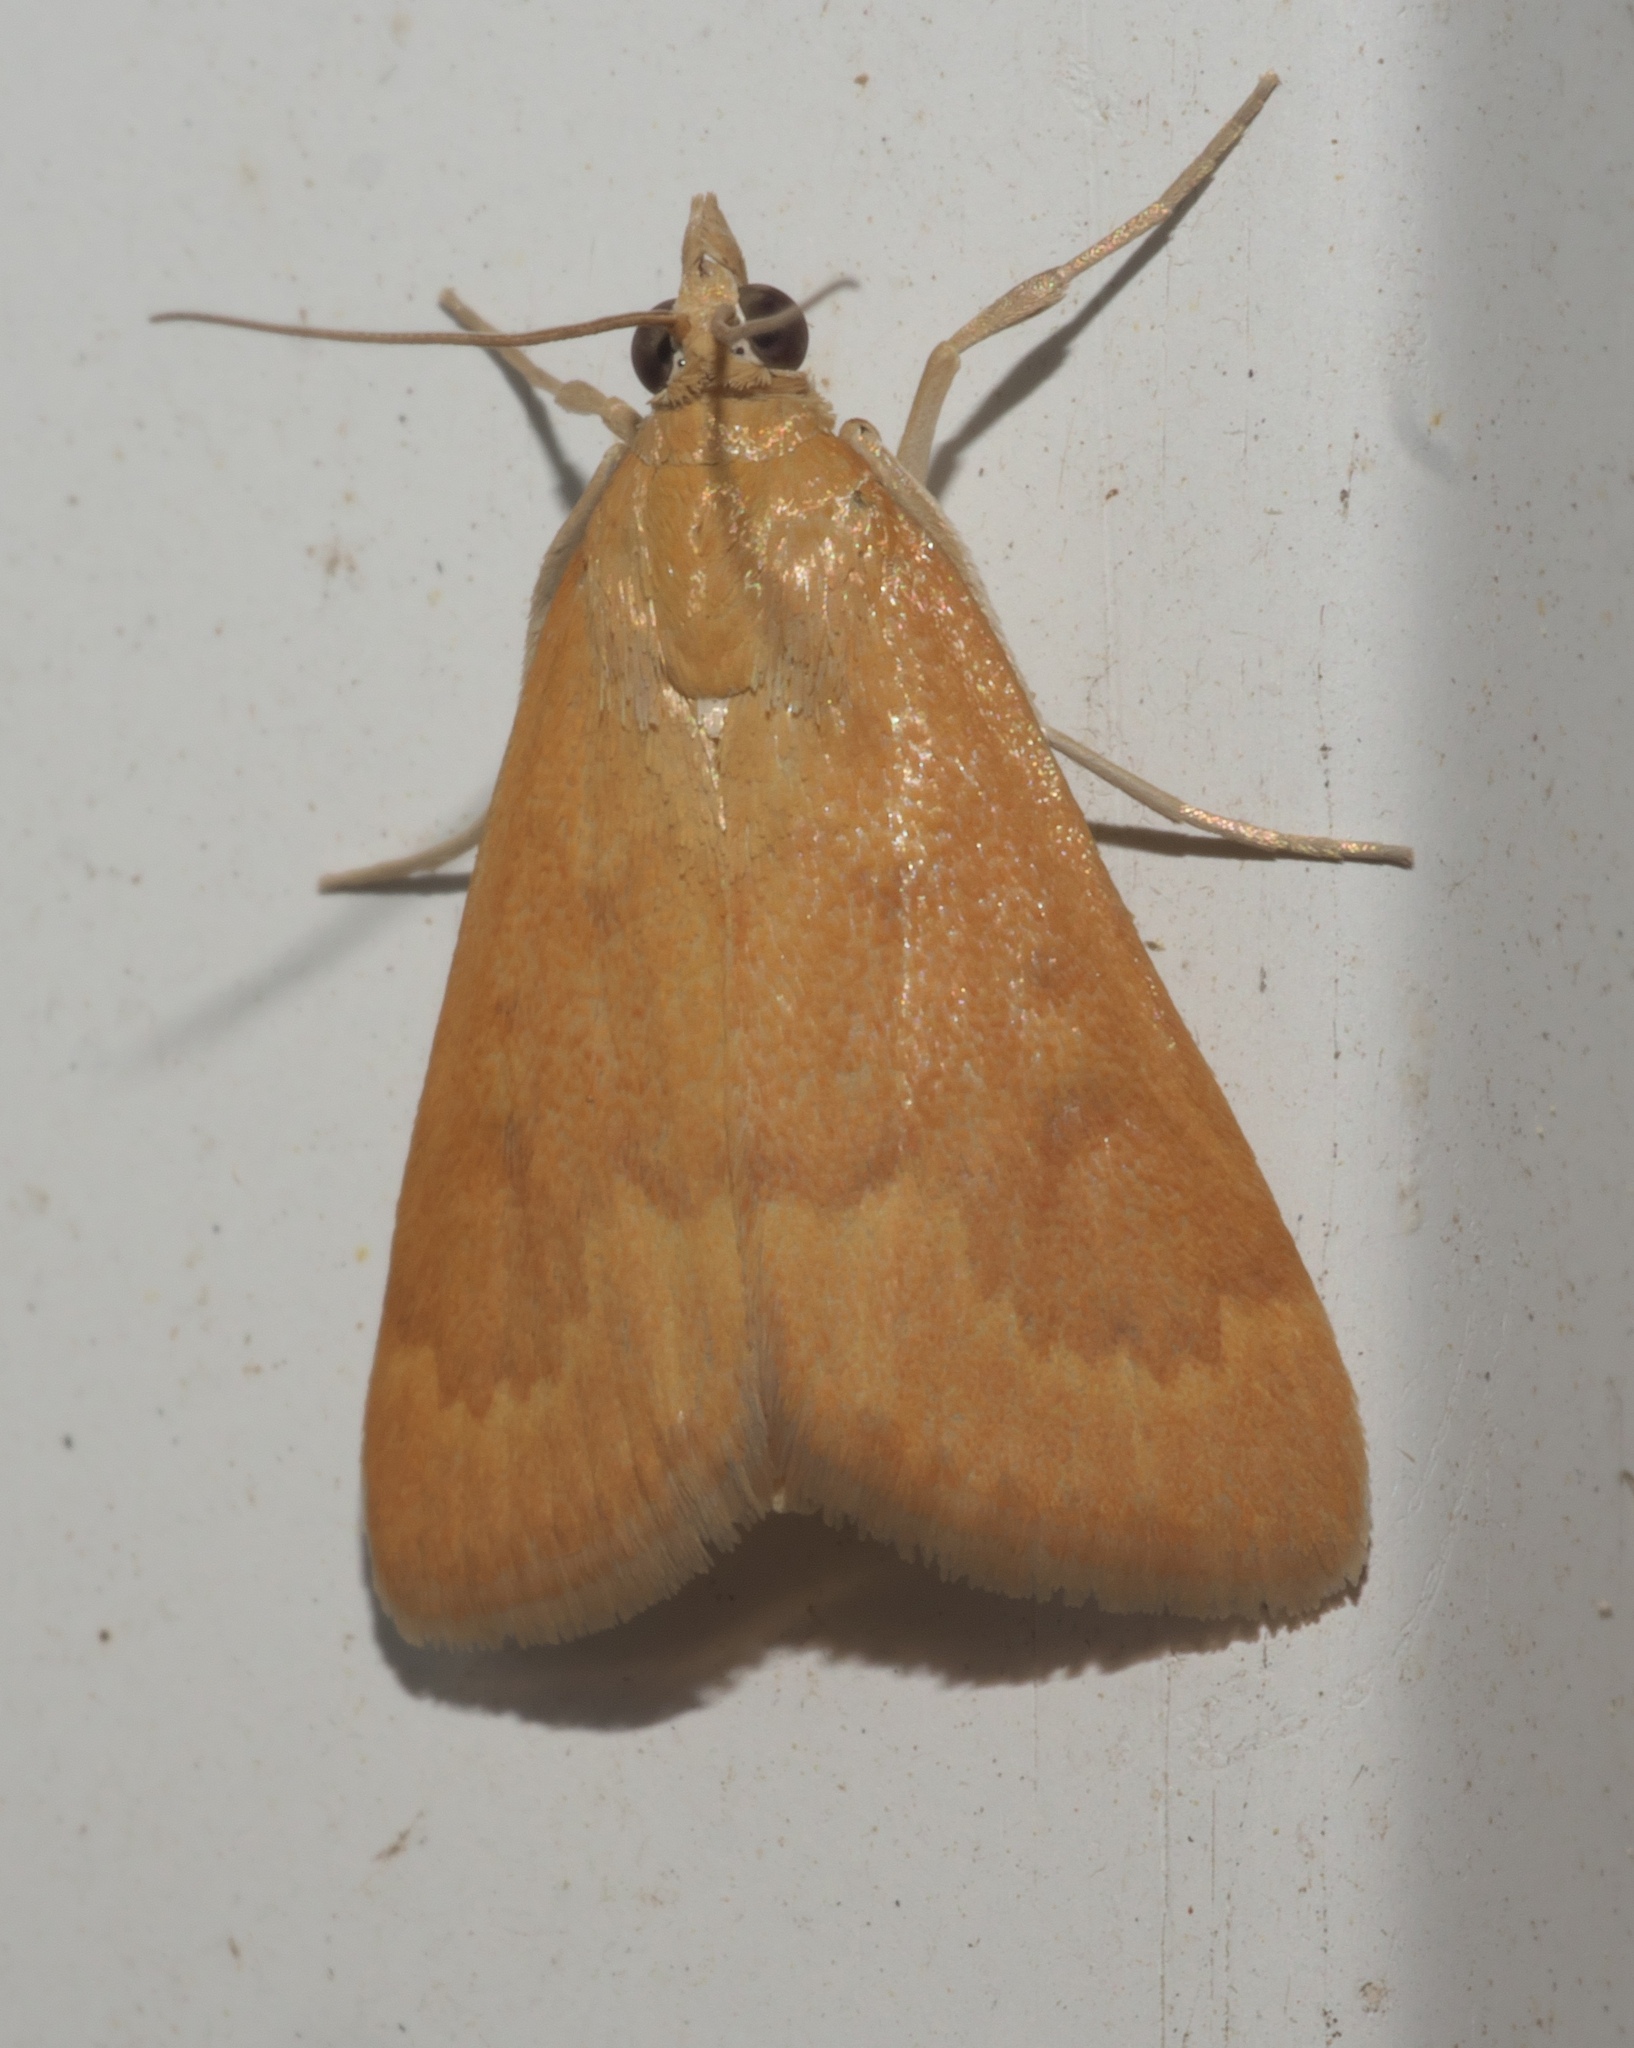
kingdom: Animalia
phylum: Arthropoda
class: Insecta
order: Lepidoptera
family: Crambidae
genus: Achyra
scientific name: Achyra rantalis
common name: Garden webworm
